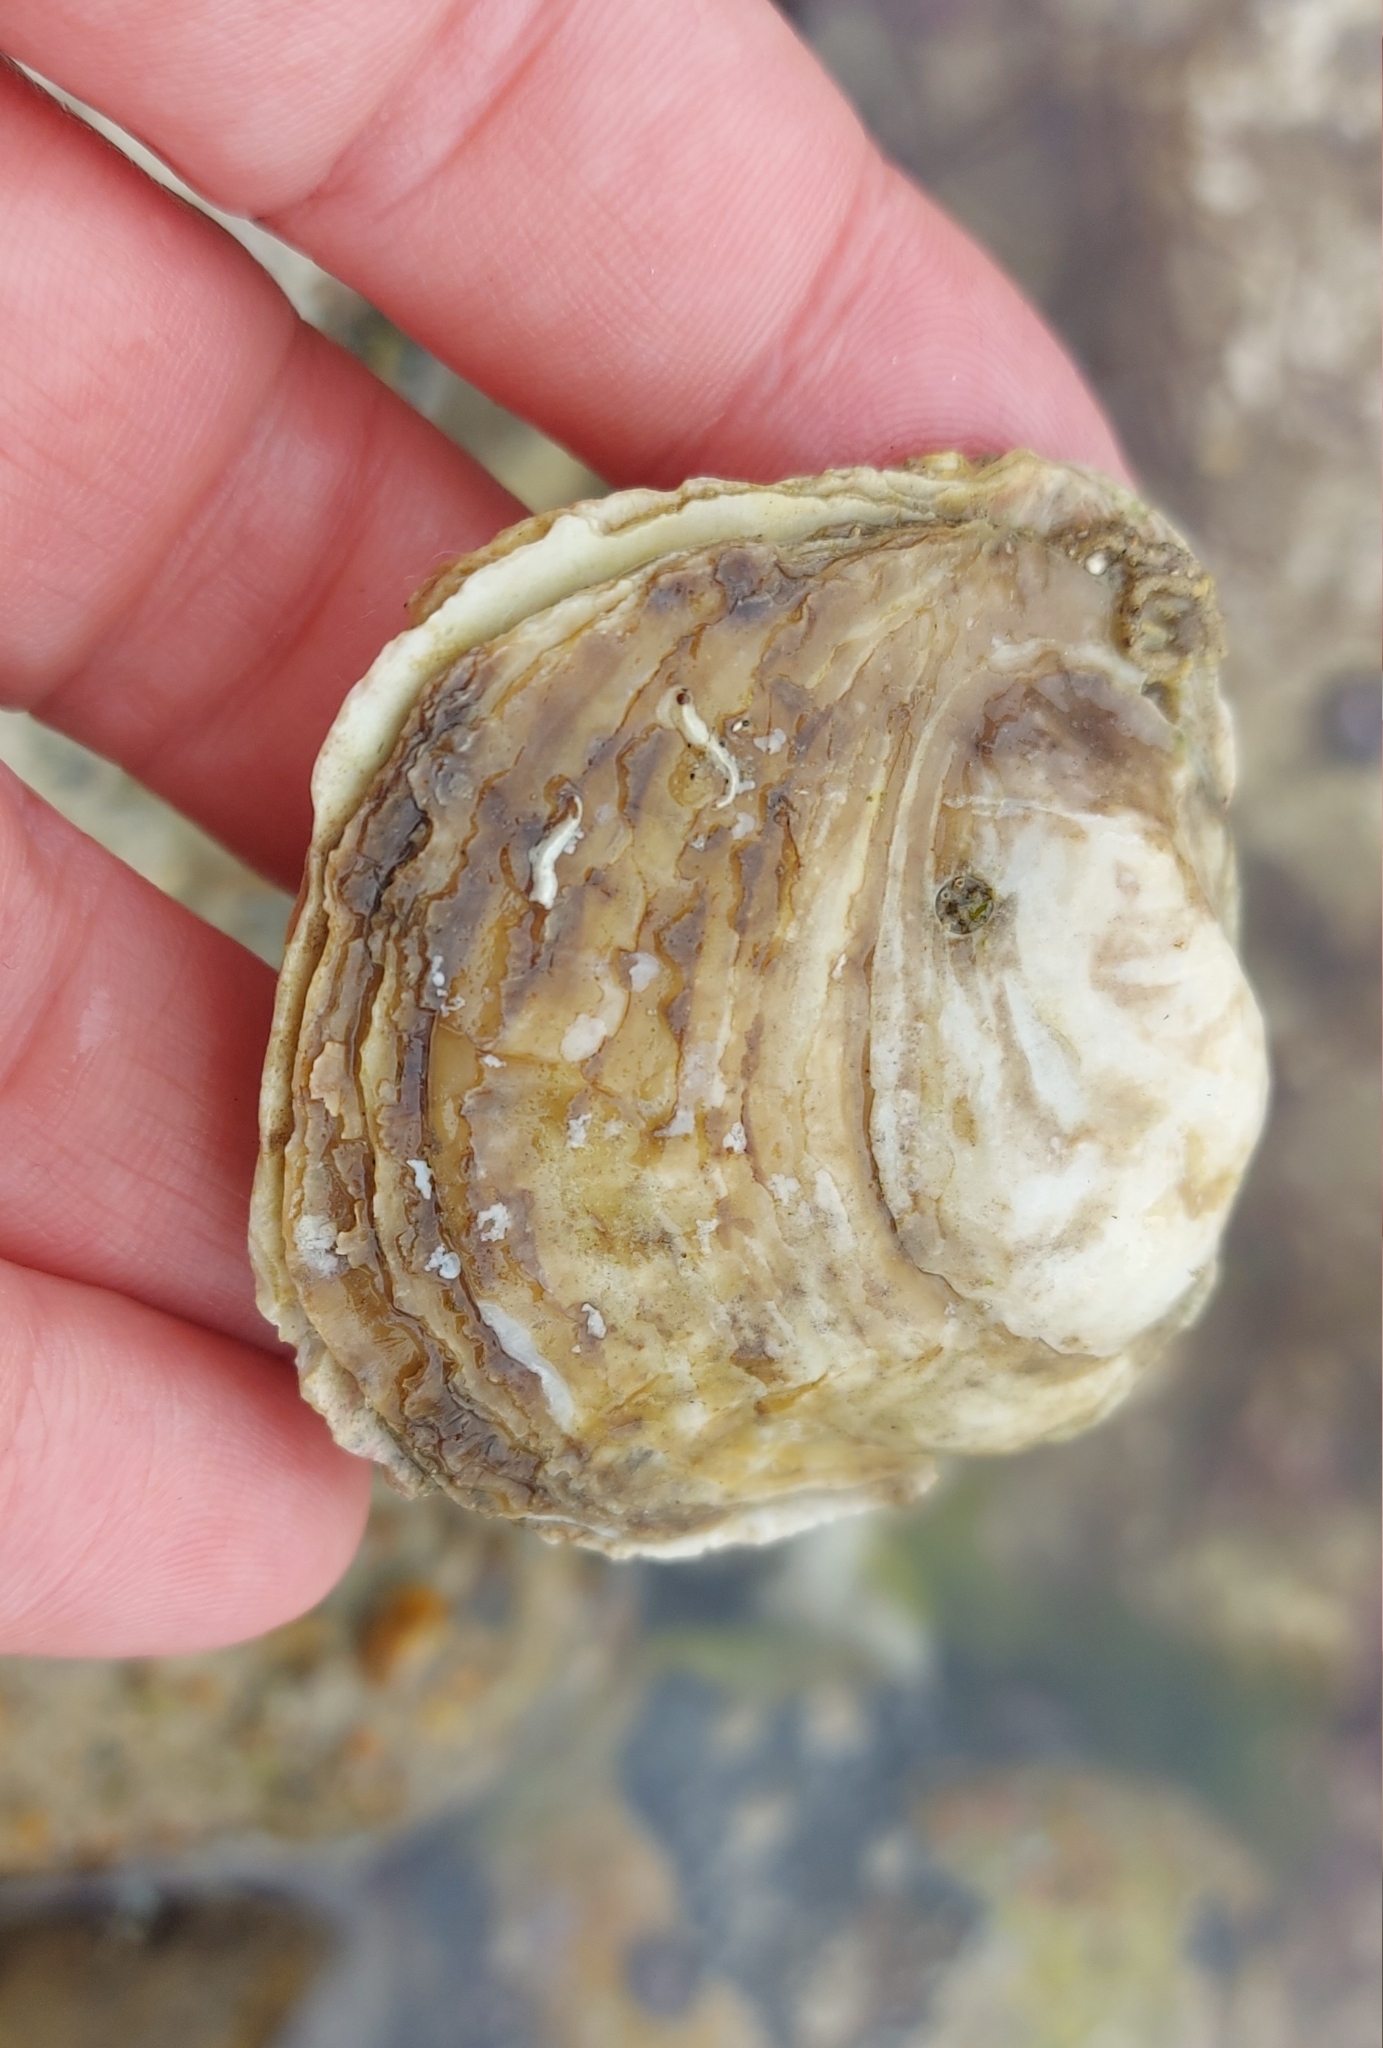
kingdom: Animalia
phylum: Mollusca
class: Bivalvia
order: Ostreida
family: Ostreidae
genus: Ostrea
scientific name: Ostrea edulis
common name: Flat oyster
